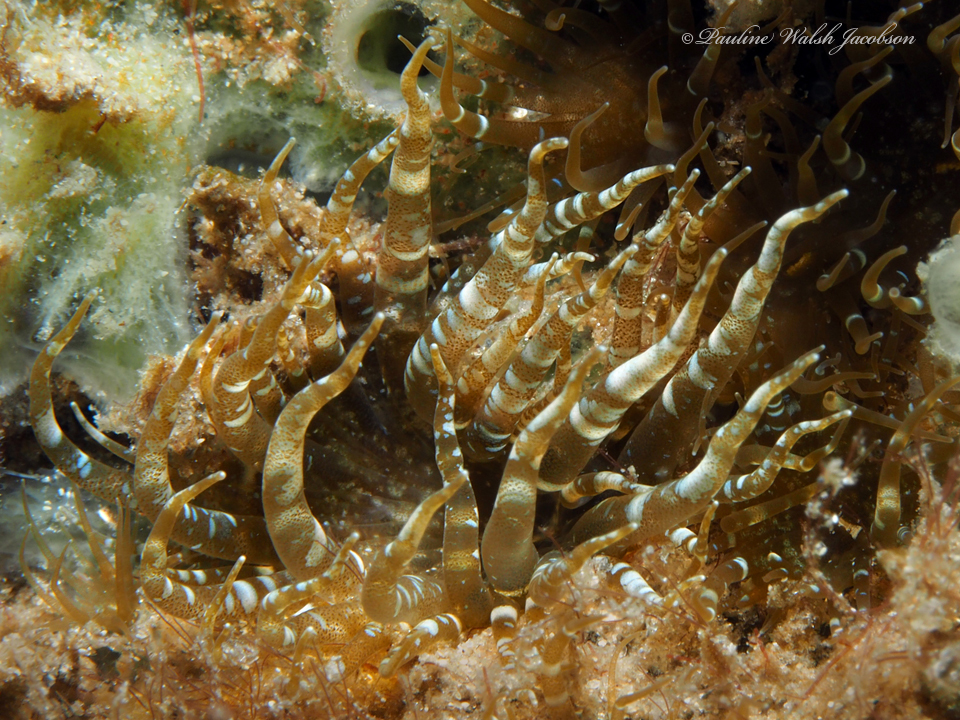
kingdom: Animalia
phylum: Cnidaria
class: Anthozoa
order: Actiniaria
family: Aiptasiidae
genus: Exaiptasia
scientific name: Exaiptasia diaphana
